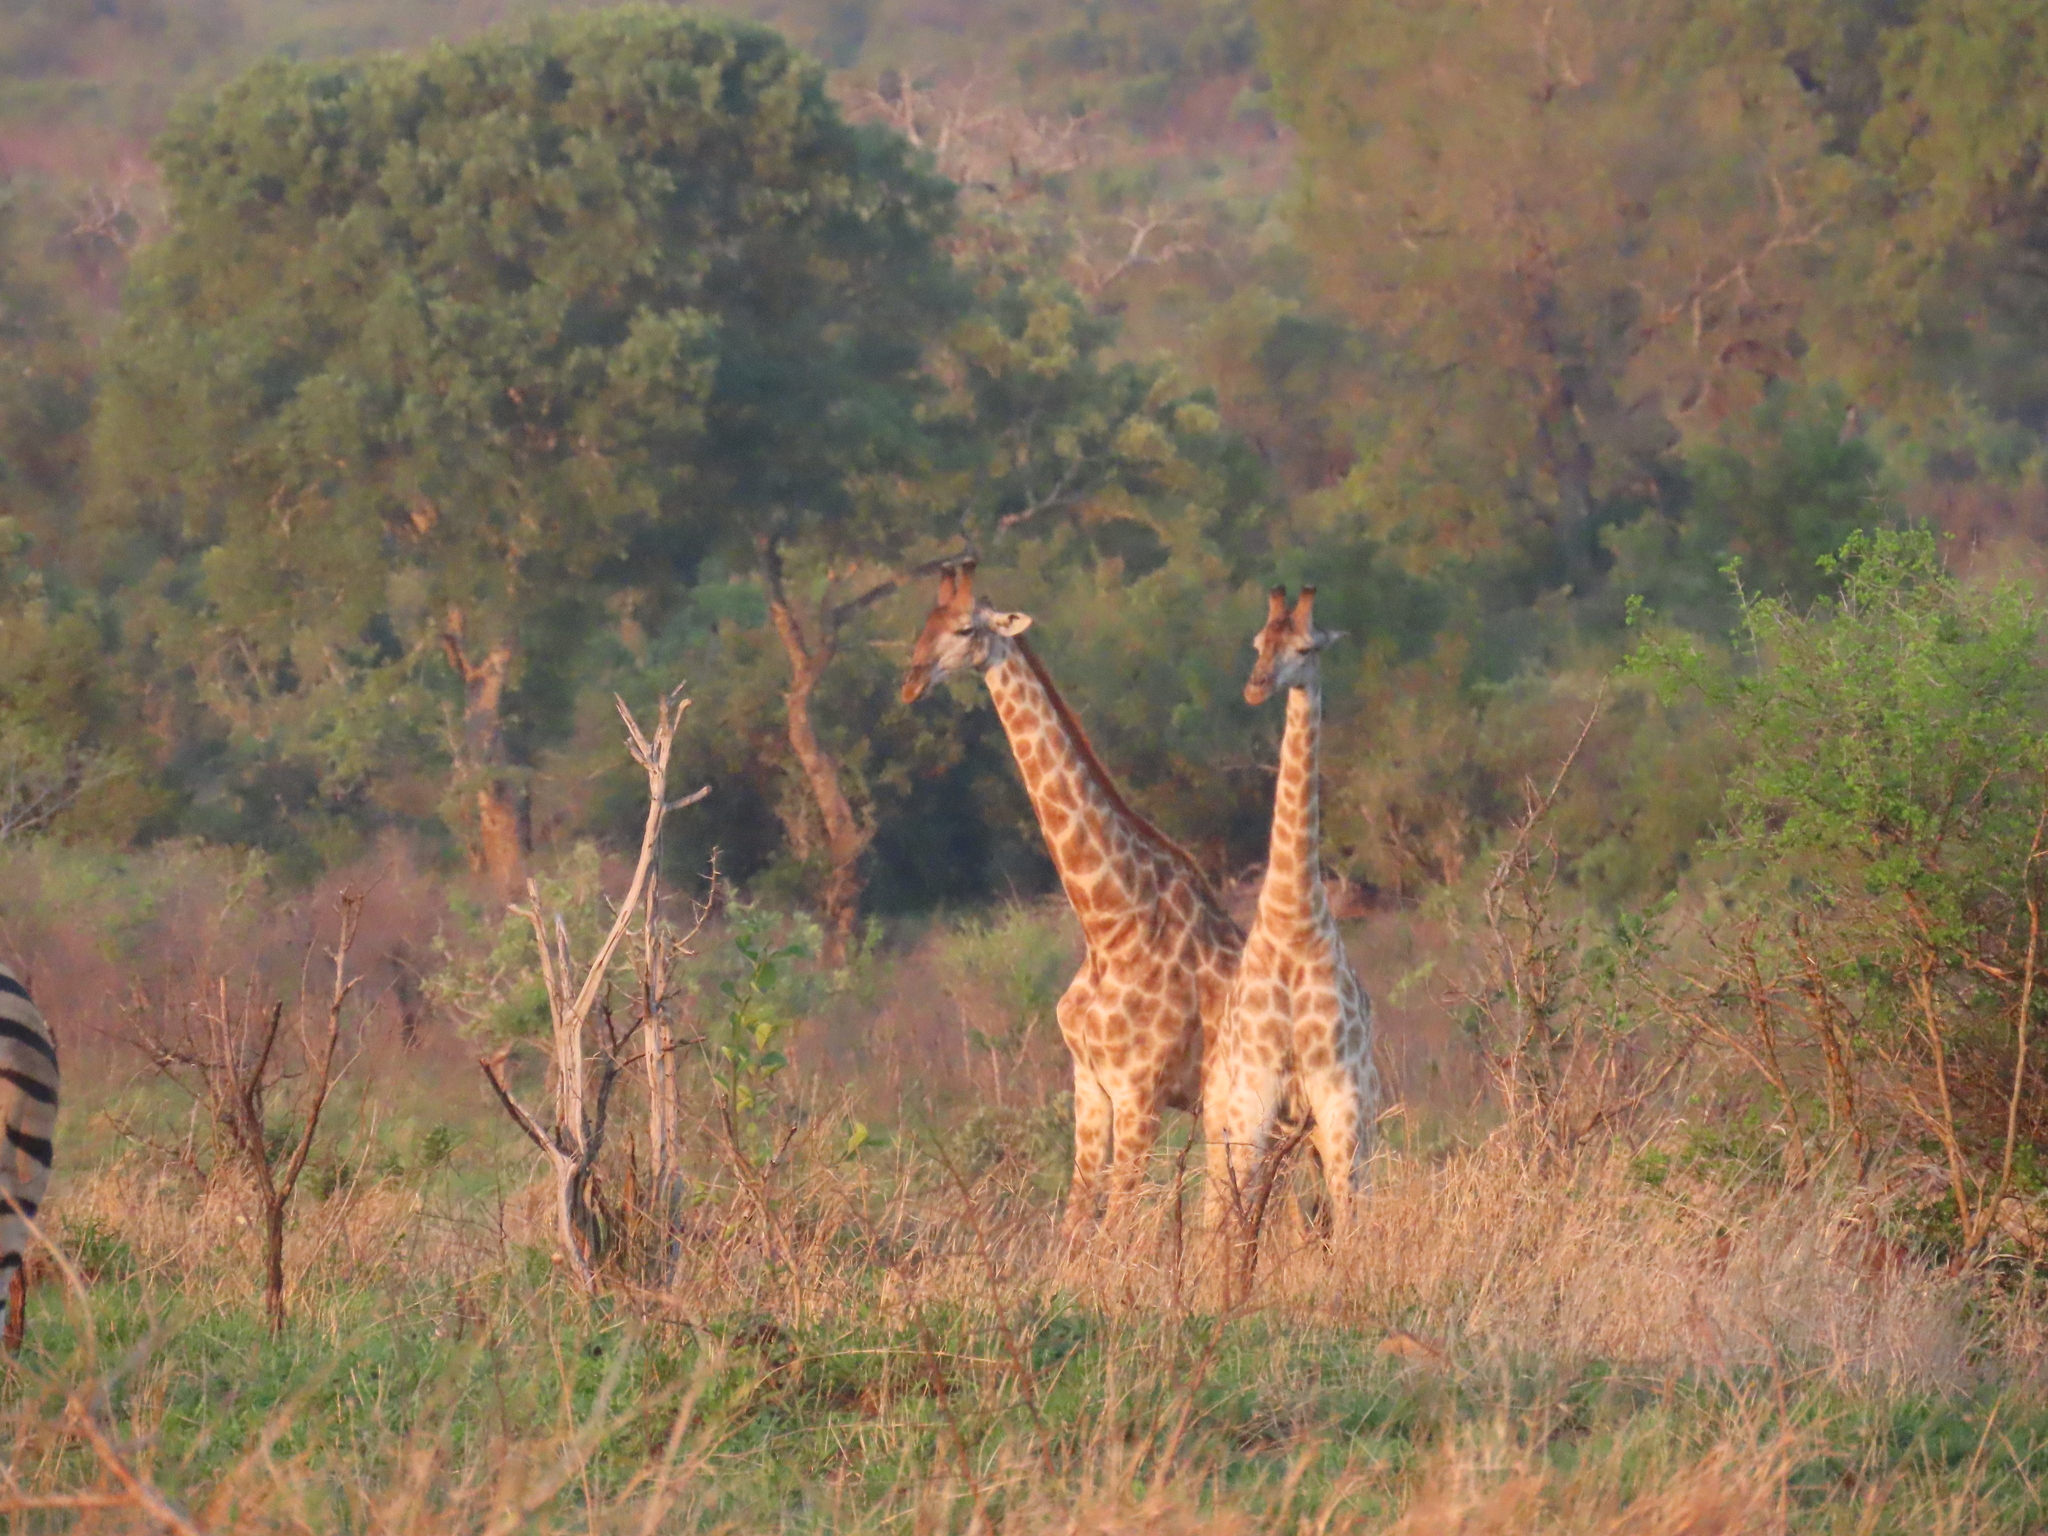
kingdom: Animalia
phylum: Chordata
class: Mammalia
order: Artiodactyla
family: Giraffidae
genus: Giraffa
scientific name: Giraffa giraffa
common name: Southern giraffe
